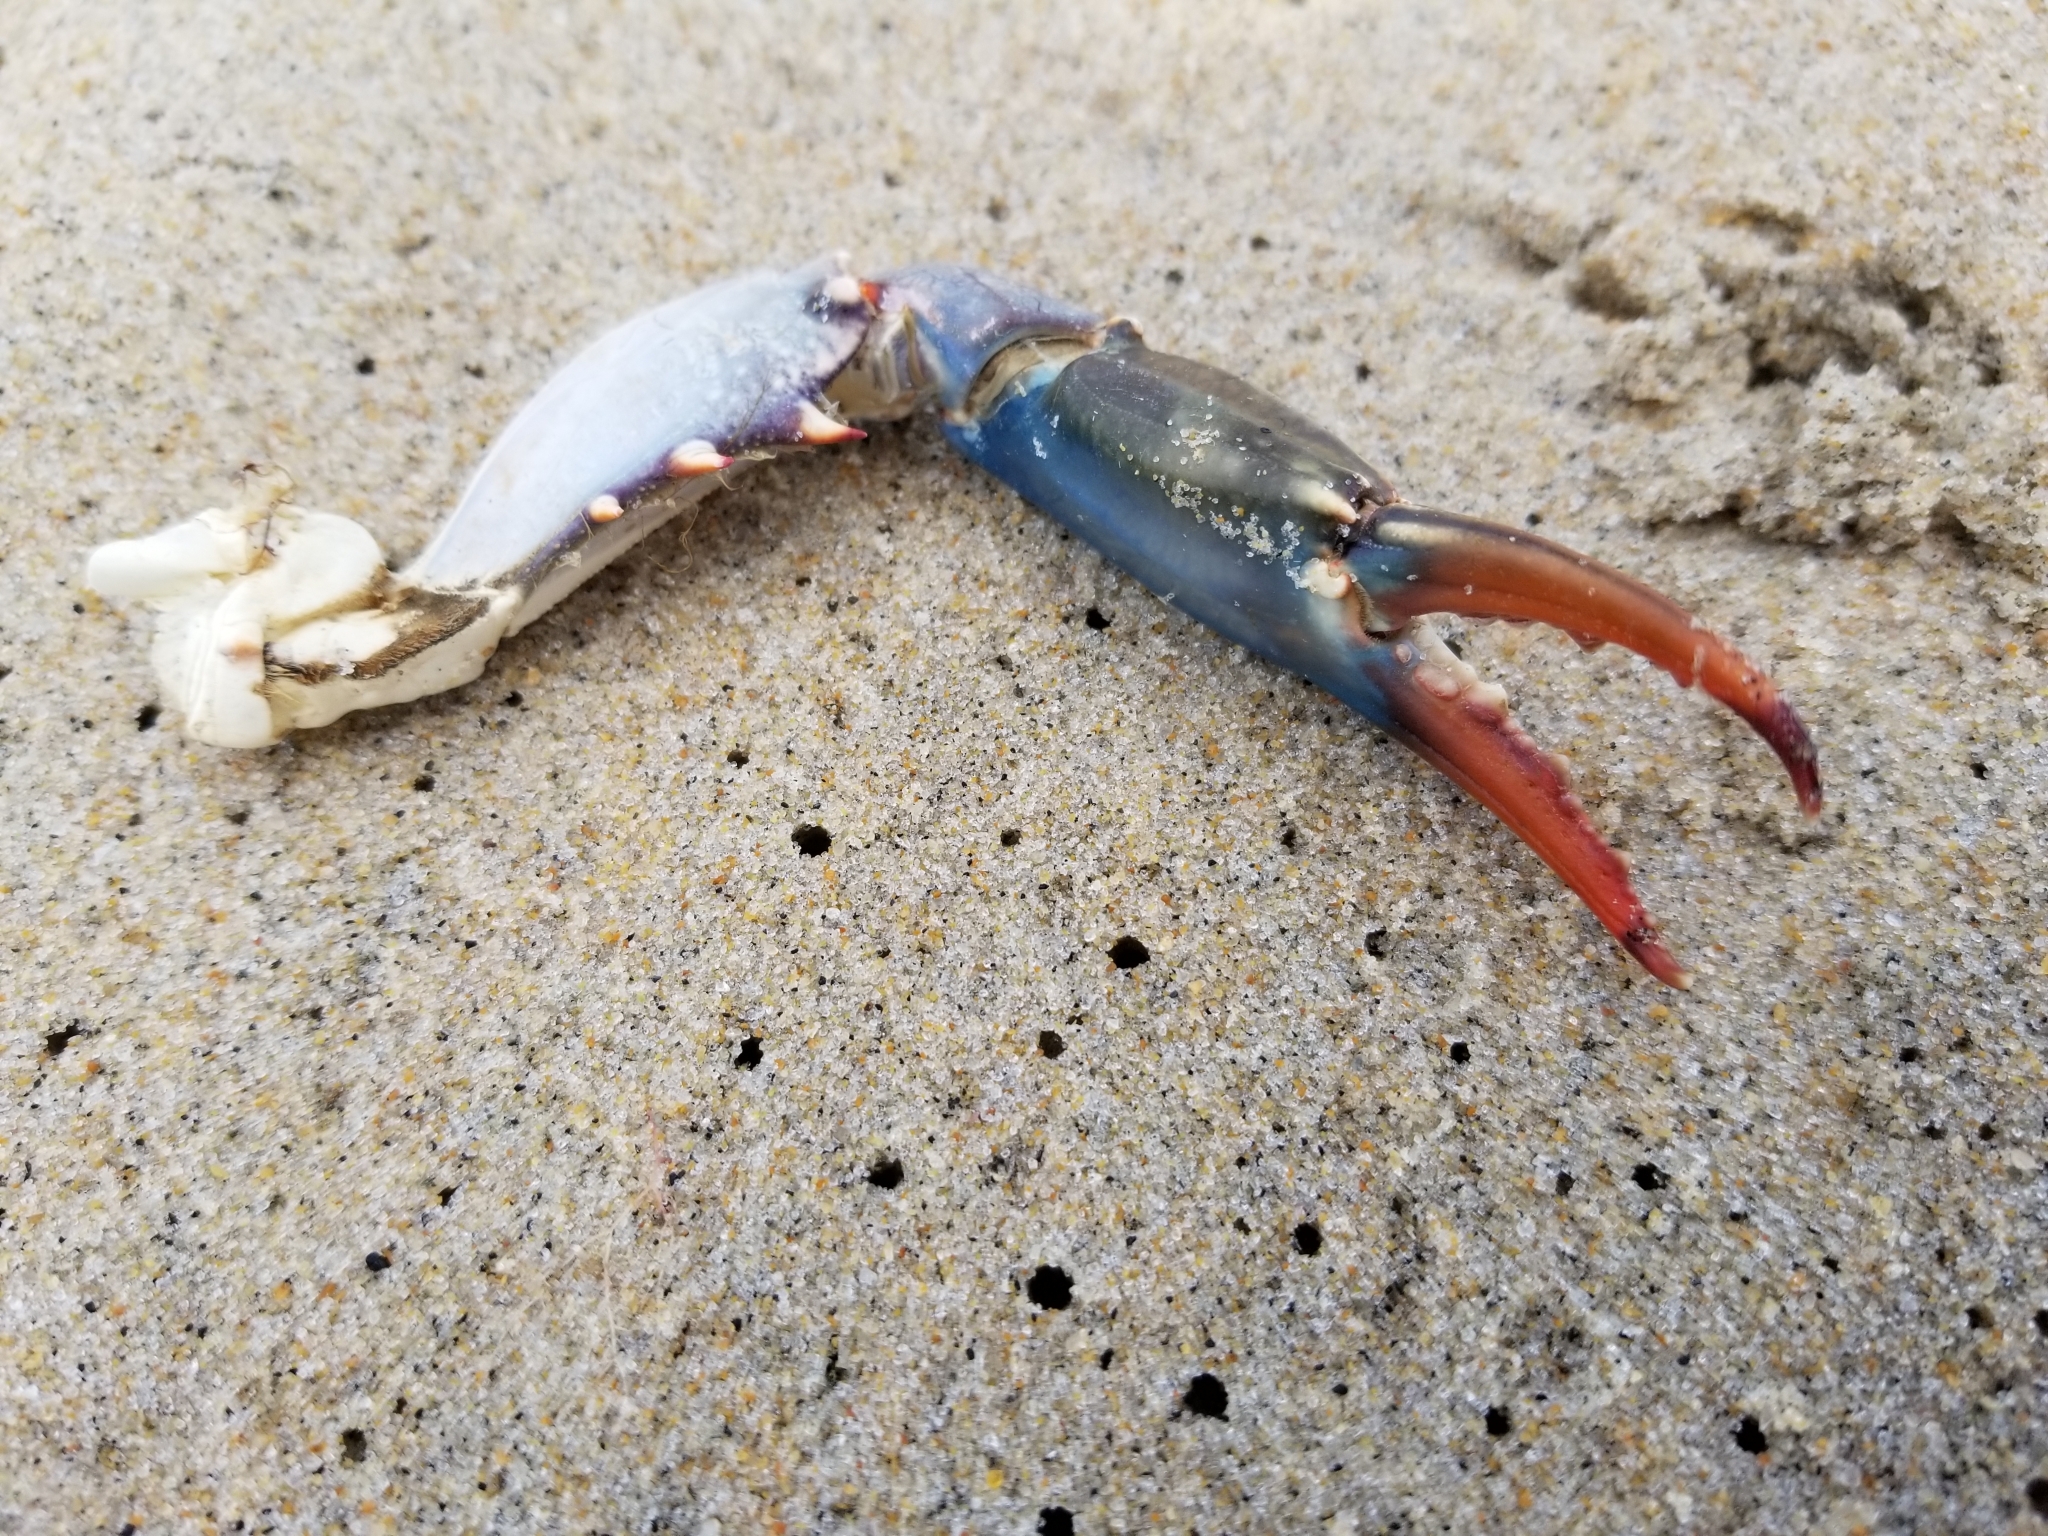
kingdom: Animalia
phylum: Arthropoda
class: Malacostraca
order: Decapoda
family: Portunidae
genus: Callinectes
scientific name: Callinectes sapidus
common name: Blue crab
